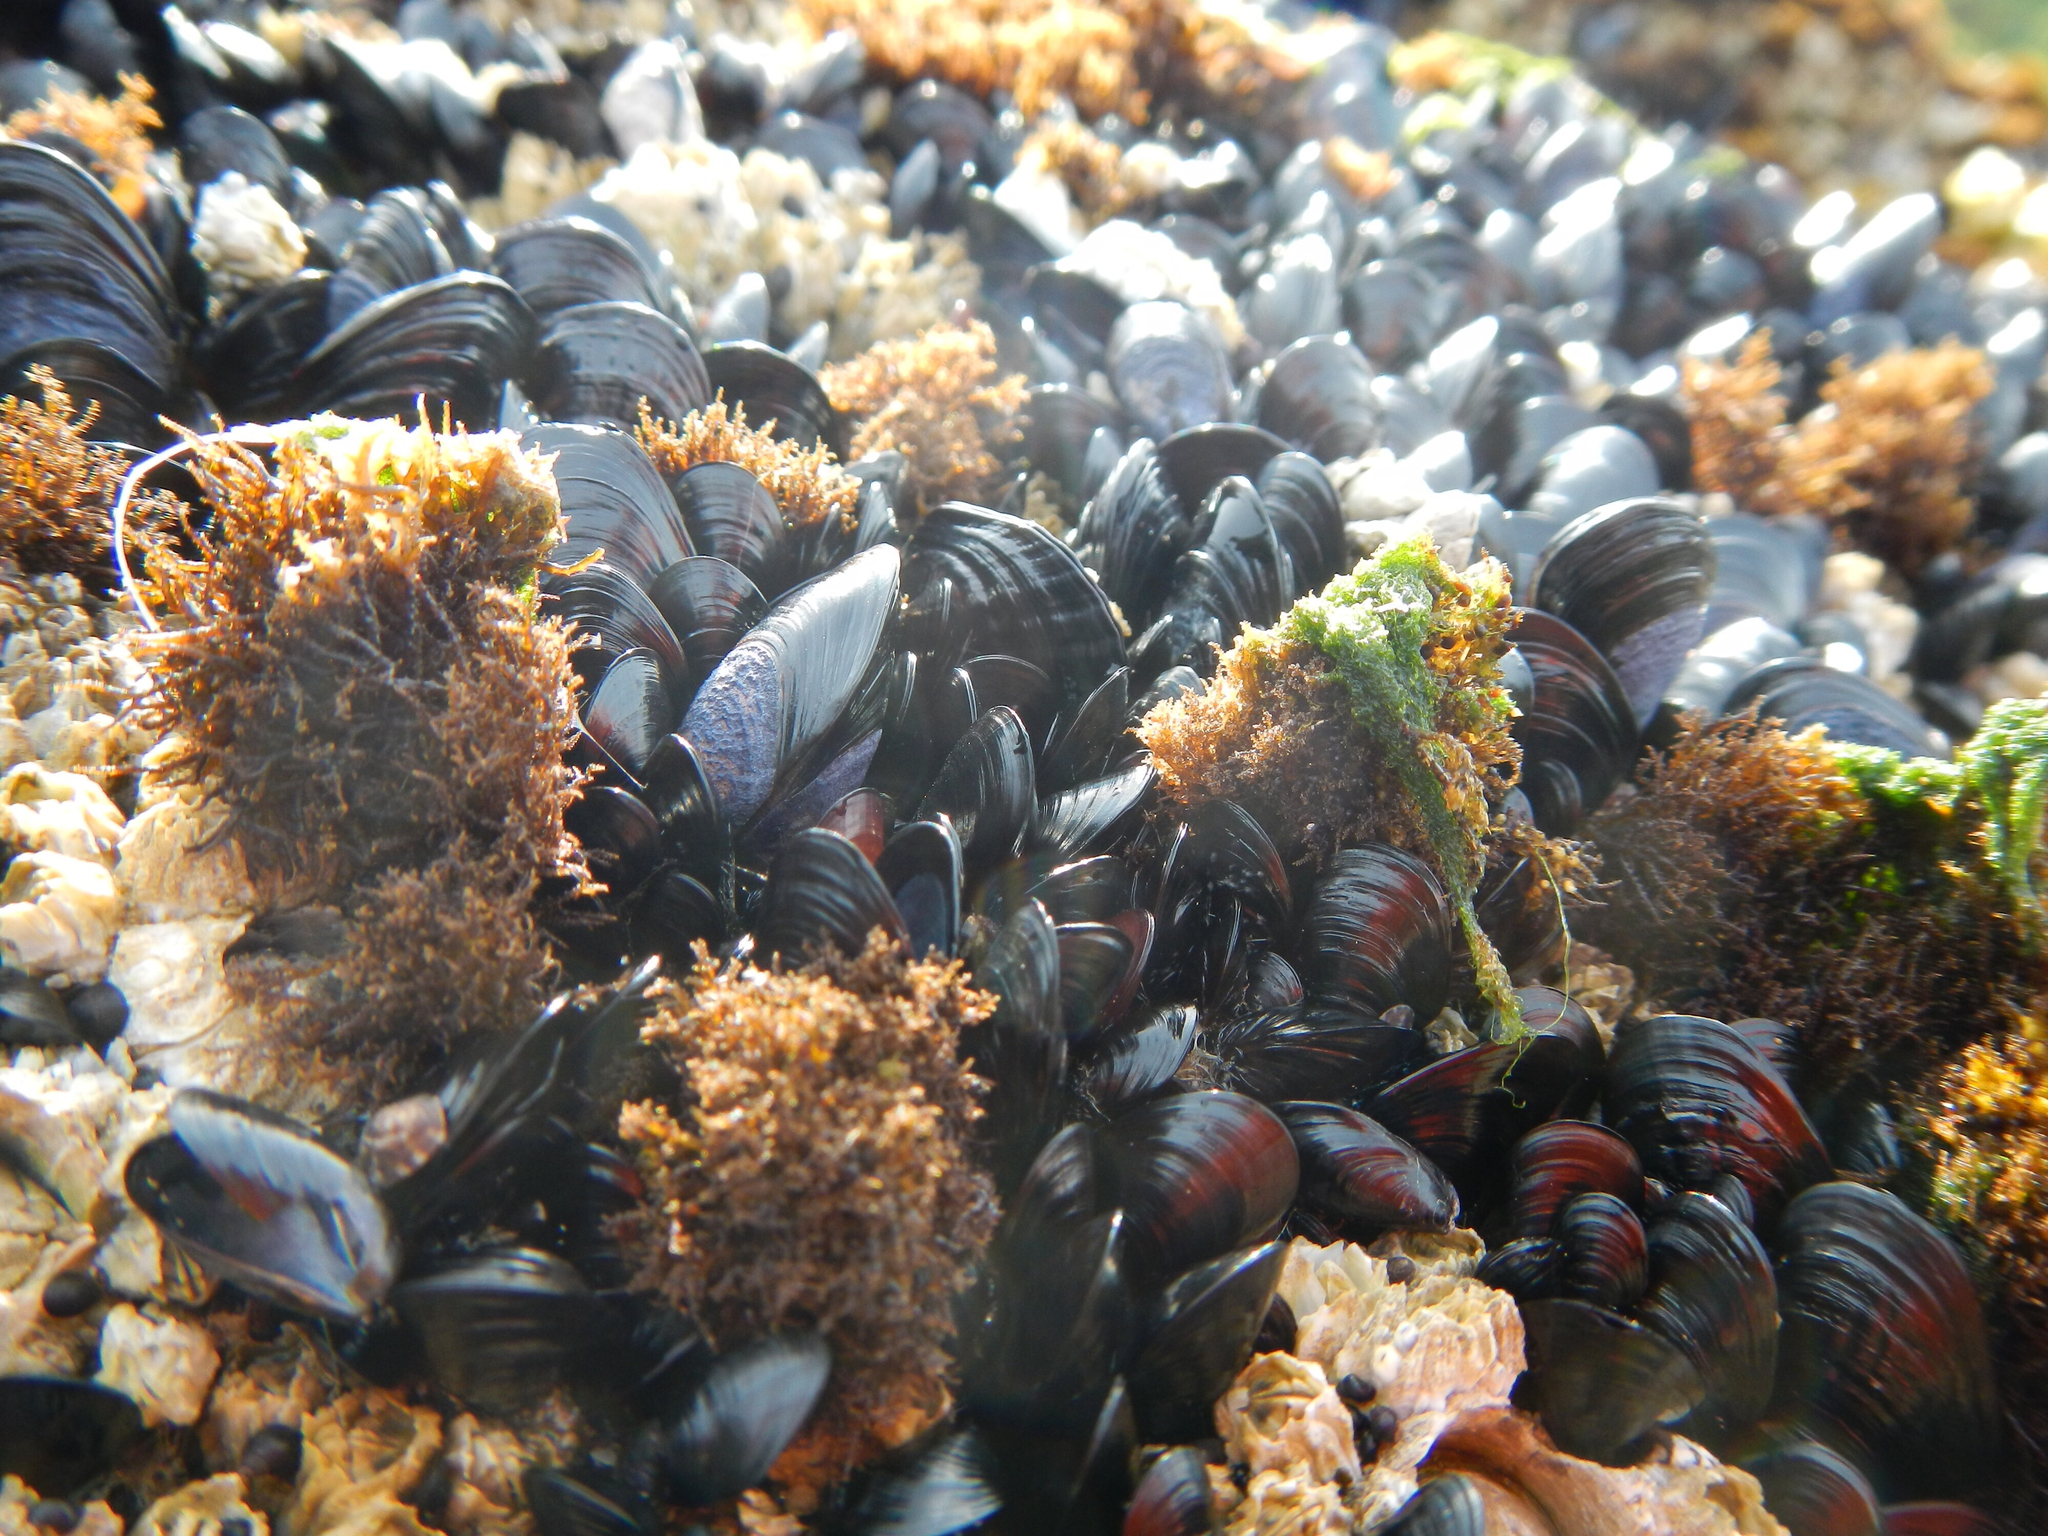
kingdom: Animalia
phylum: Mollusca
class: Bivalvia
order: Mytilida
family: Mytilidae
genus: Mytilus
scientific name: Mytilus trossulus
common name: Northern blue mussel
